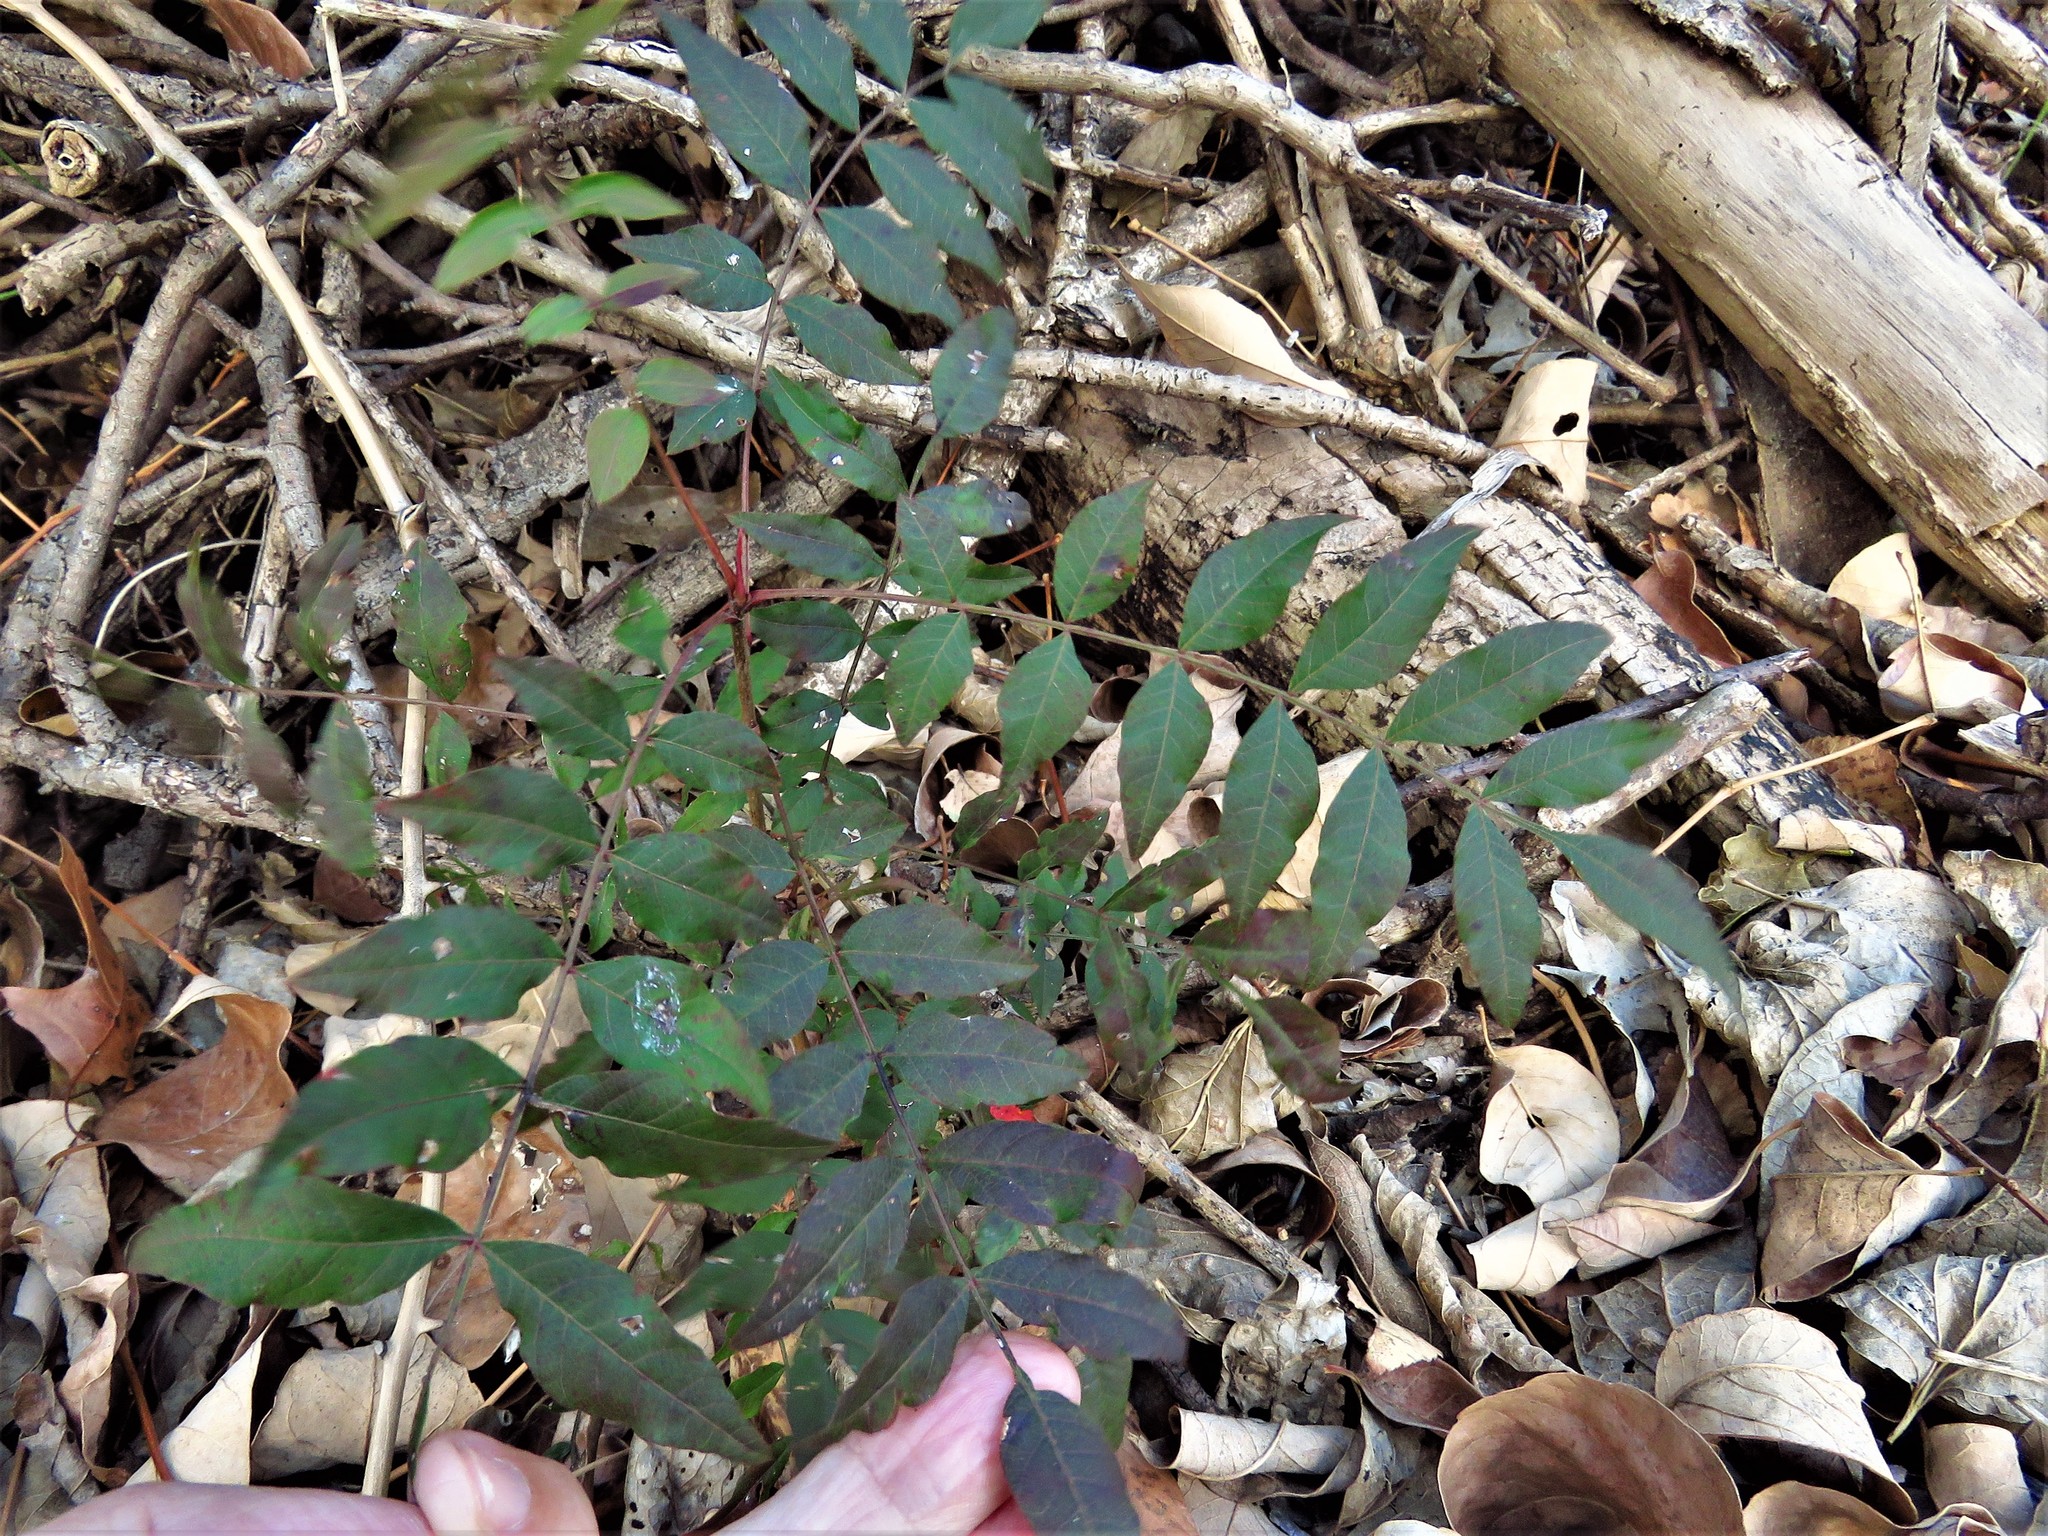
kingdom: Plantae
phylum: Tracheophyta
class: Magnoliopsida
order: Sapindales
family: Anacardiaceae
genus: Pistacia
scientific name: Pistacia chinensis
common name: Chinese pistache
